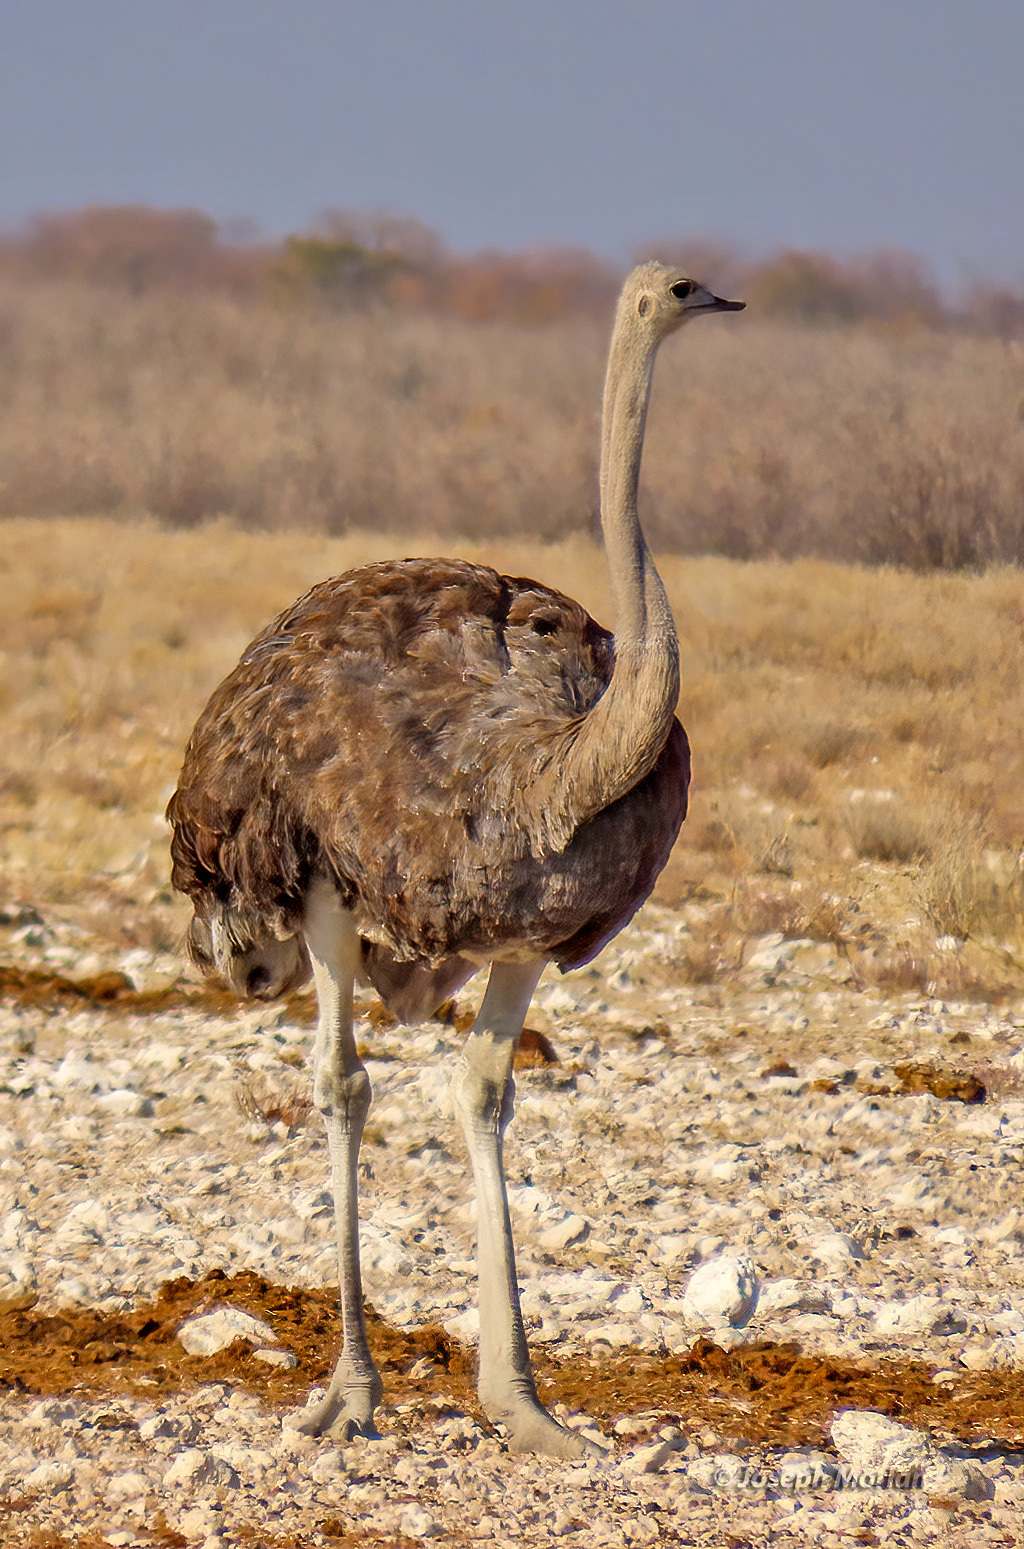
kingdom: Animalia
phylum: Chordata
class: Aves
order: Struthioniformes
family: Struthionidae
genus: Struthio
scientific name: Struthio camelus
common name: Common ostrich
